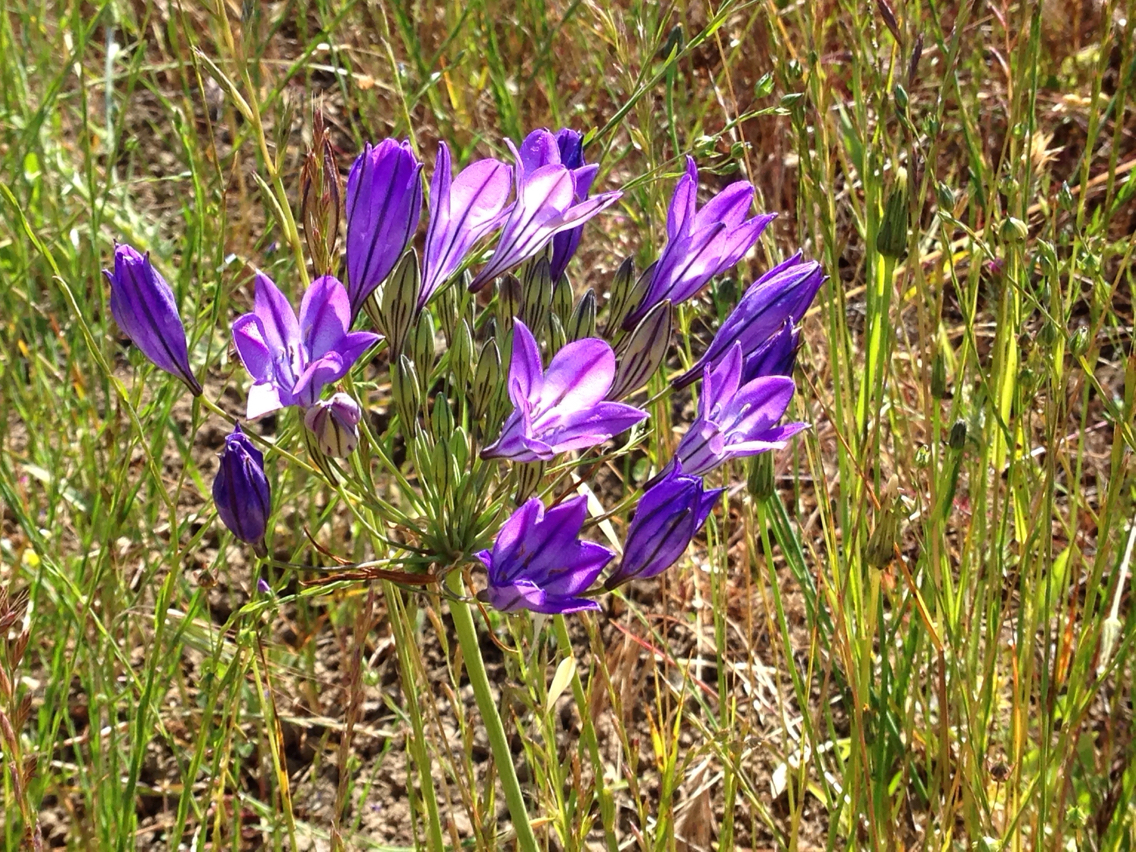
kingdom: Plantae
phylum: Tracheophyta
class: Liliopsida
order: Asparagales
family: Asparagaceae
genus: Triteleia
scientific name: Triteleia laxa
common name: Triplet-lily
